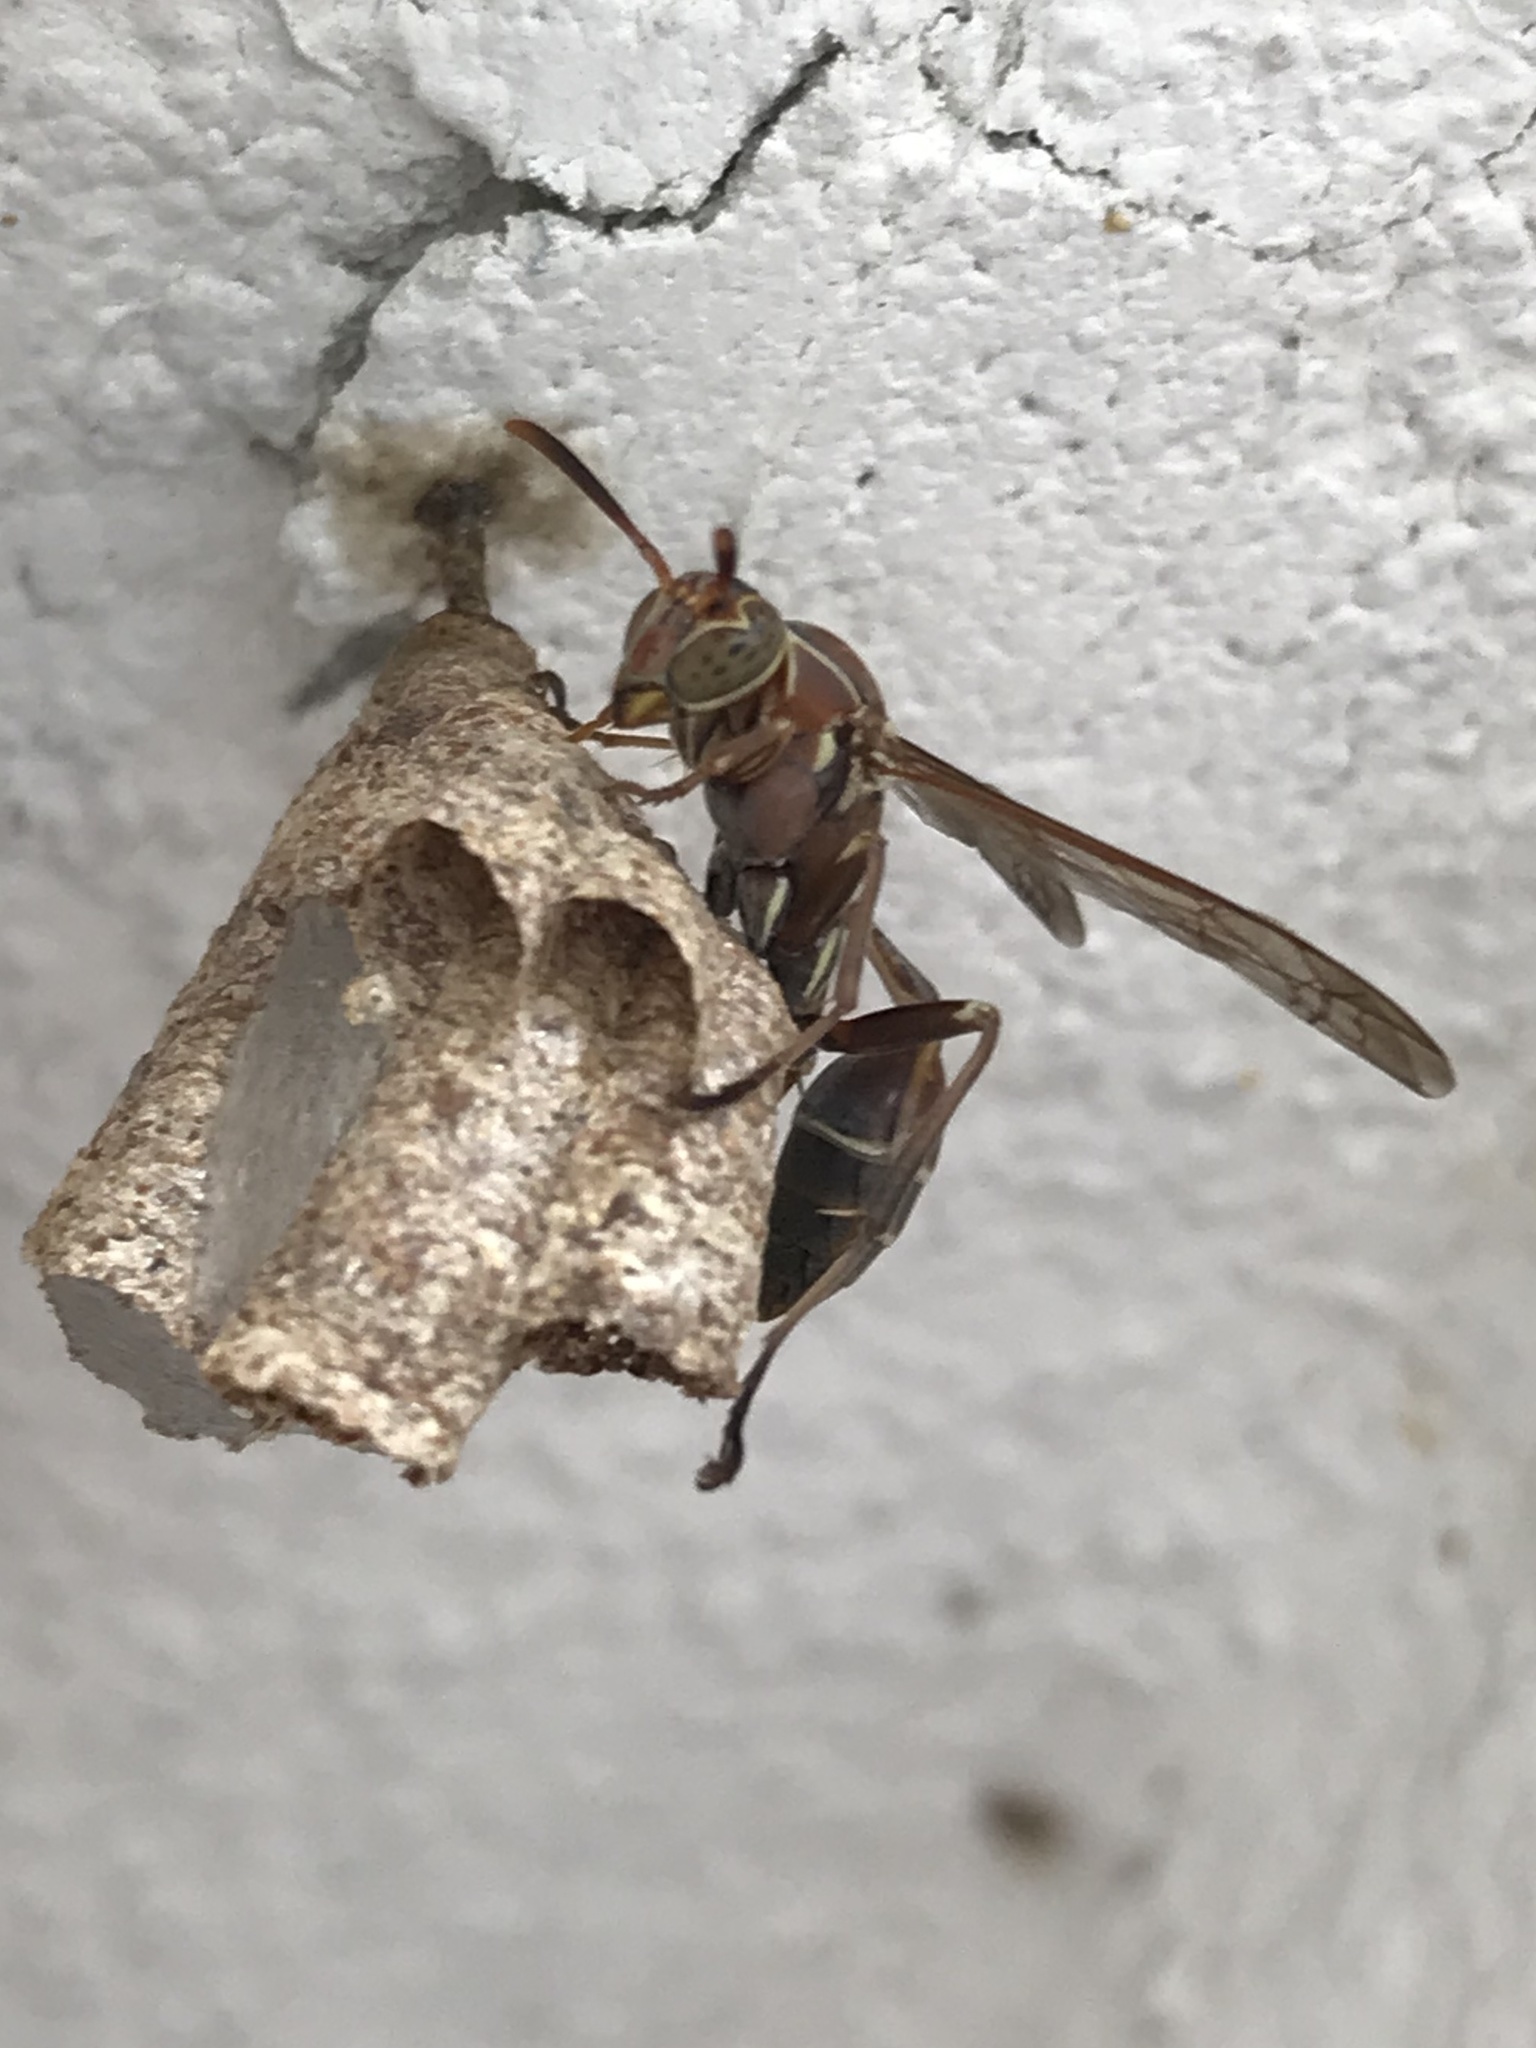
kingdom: Animalia
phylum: Arthropoda
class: Insecta
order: Hymenoptera
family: Vespidae
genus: Mischocyttarus
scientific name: Mischocyttarus mexicanus
